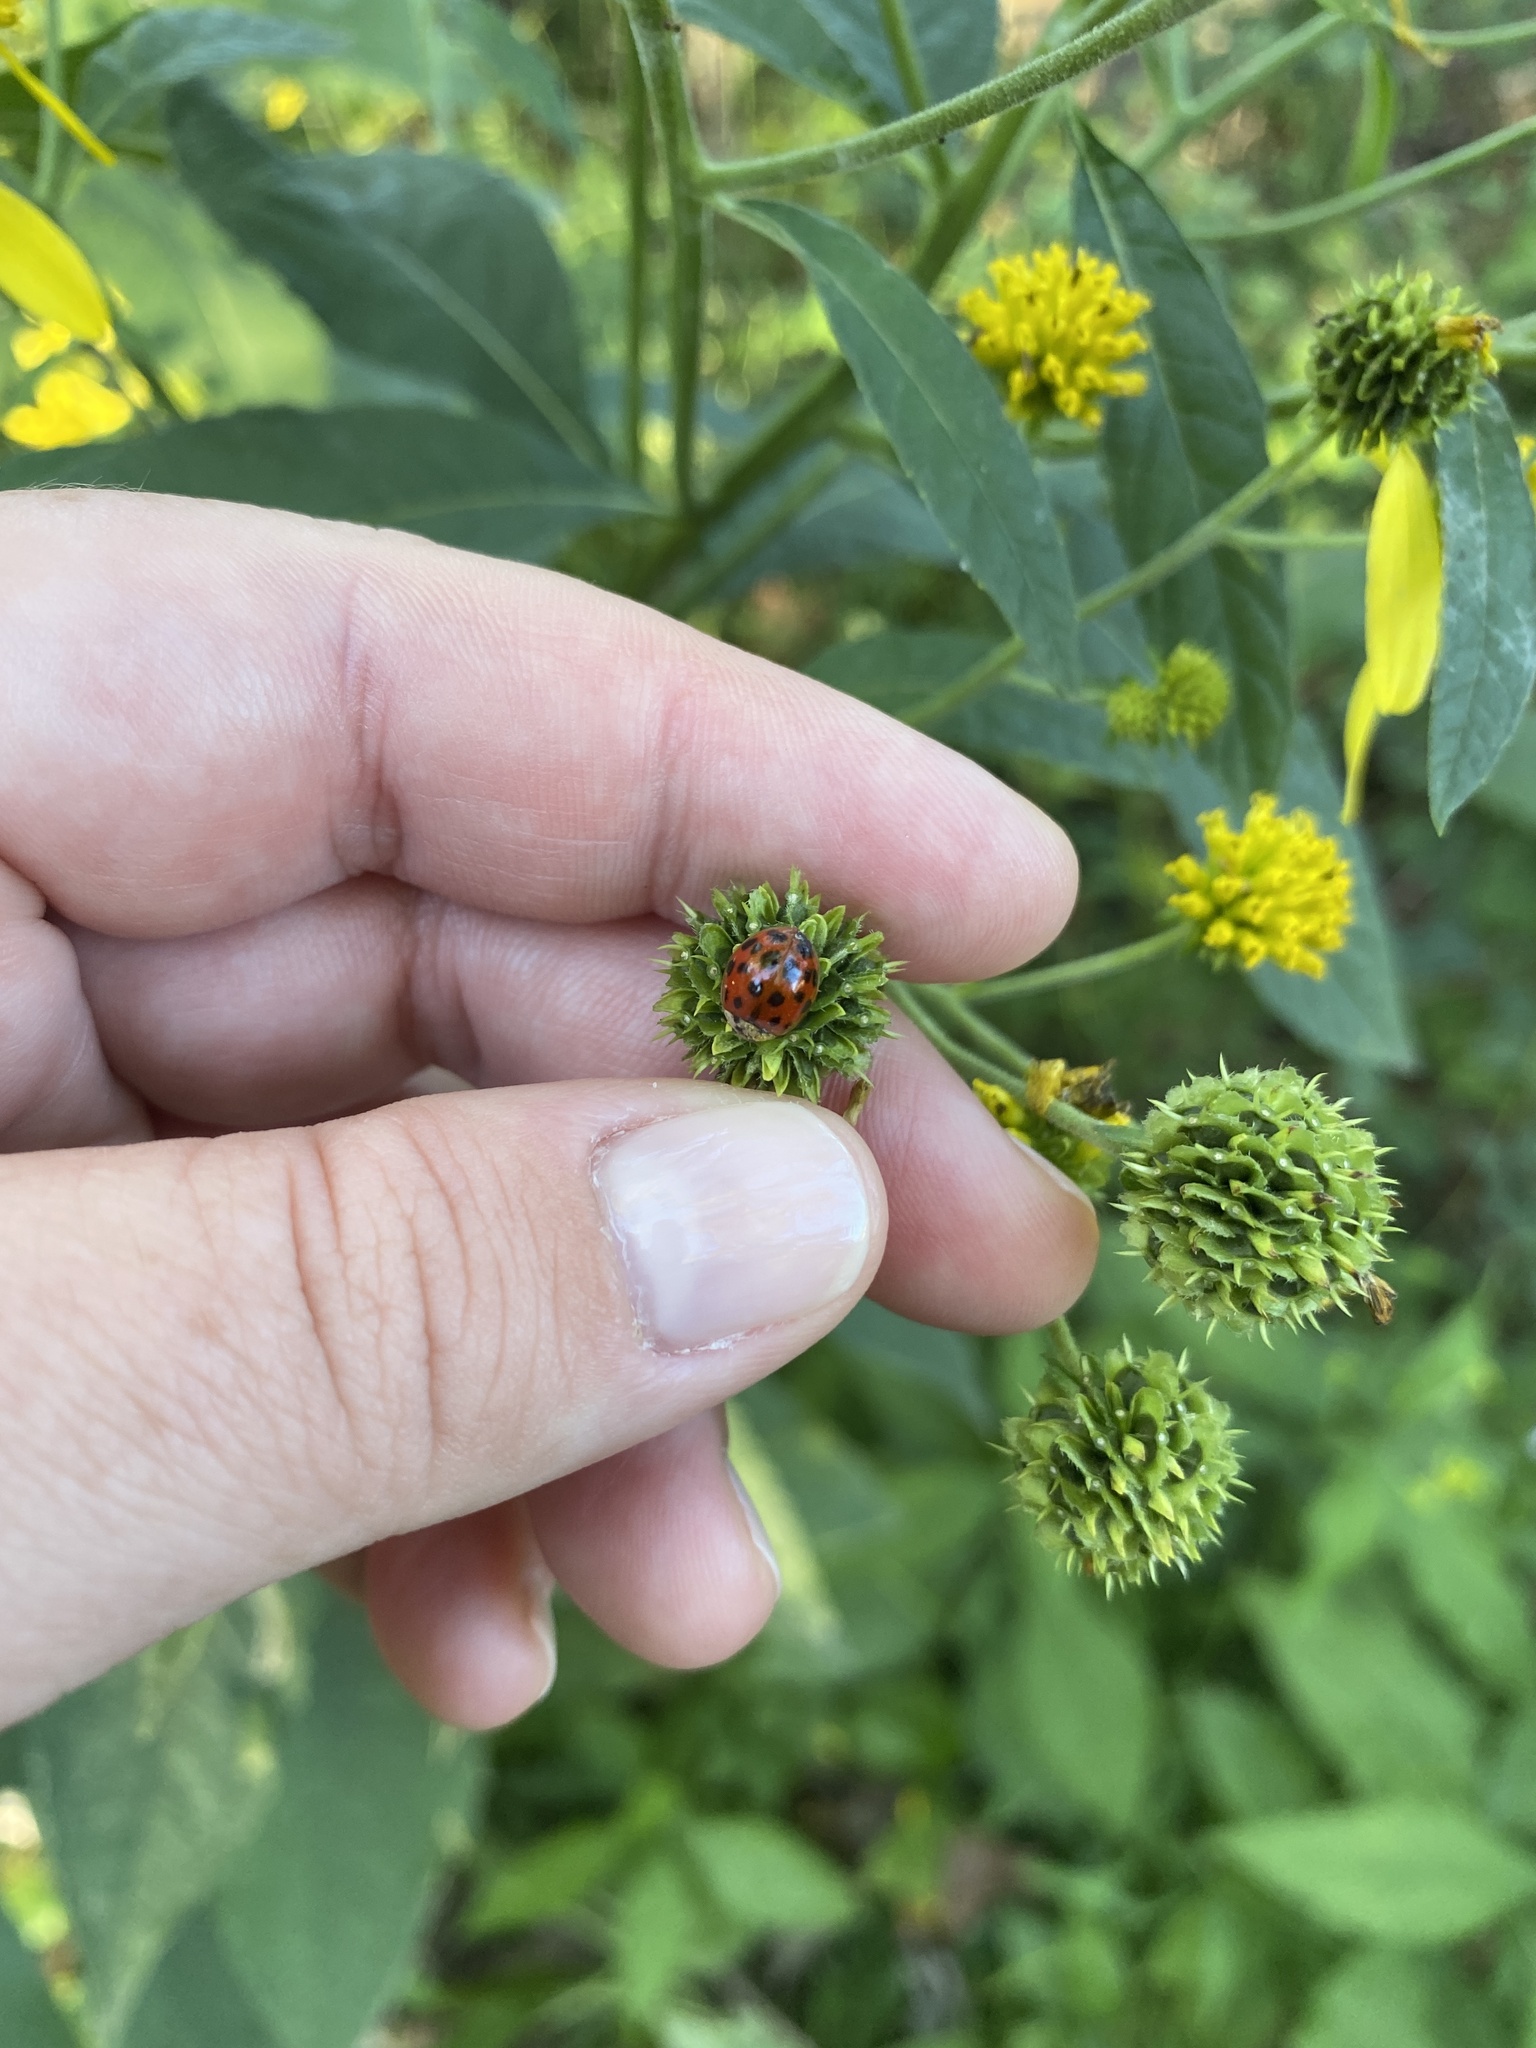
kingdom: Animalia
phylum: Arthropoda
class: Insecta
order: Coleoptera
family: Coccinellidae
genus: Harmonia
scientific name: Harmonia axyridis
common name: Harlequin ladybird
